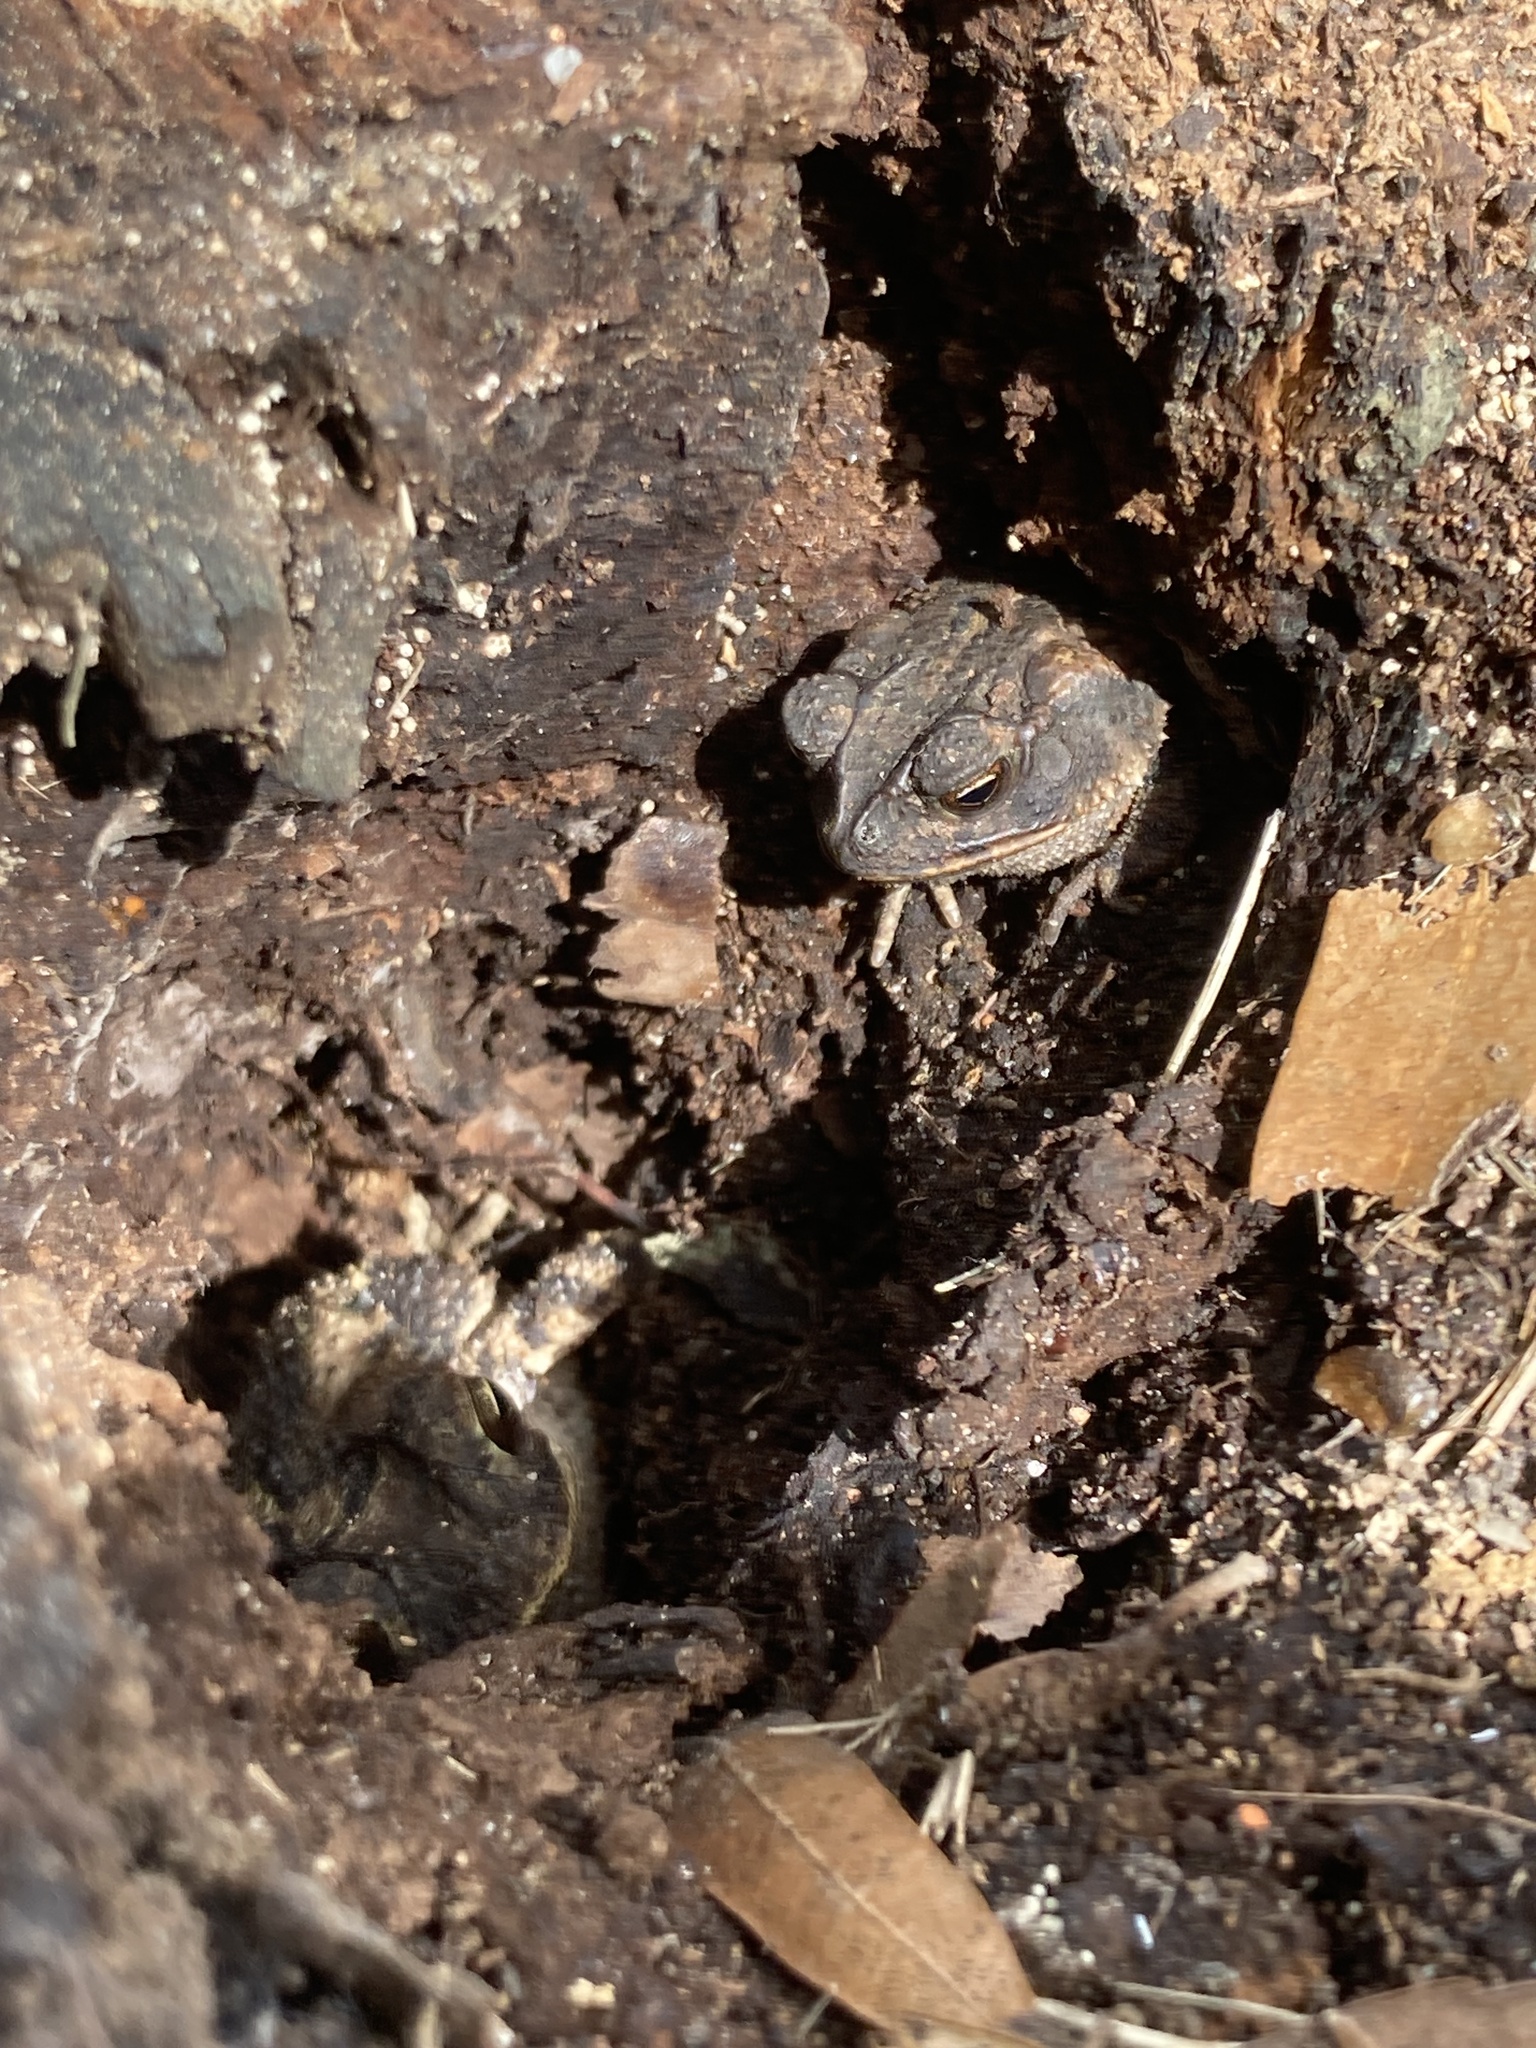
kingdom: Animalia
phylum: Chordata
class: Amphibia
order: Anura
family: Bufonidae
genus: Incilius
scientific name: Incilius nebulifer
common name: Gulf coast toad
